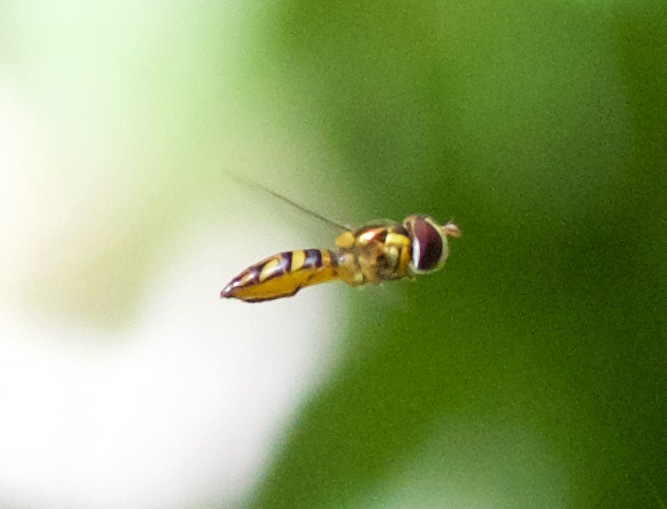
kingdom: Animalia
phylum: Arthropoda
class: Insecta
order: Diptera
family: Syrphidae
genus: Allograpta
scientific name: Allograpta obliqua
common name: Common oblique syrphid
